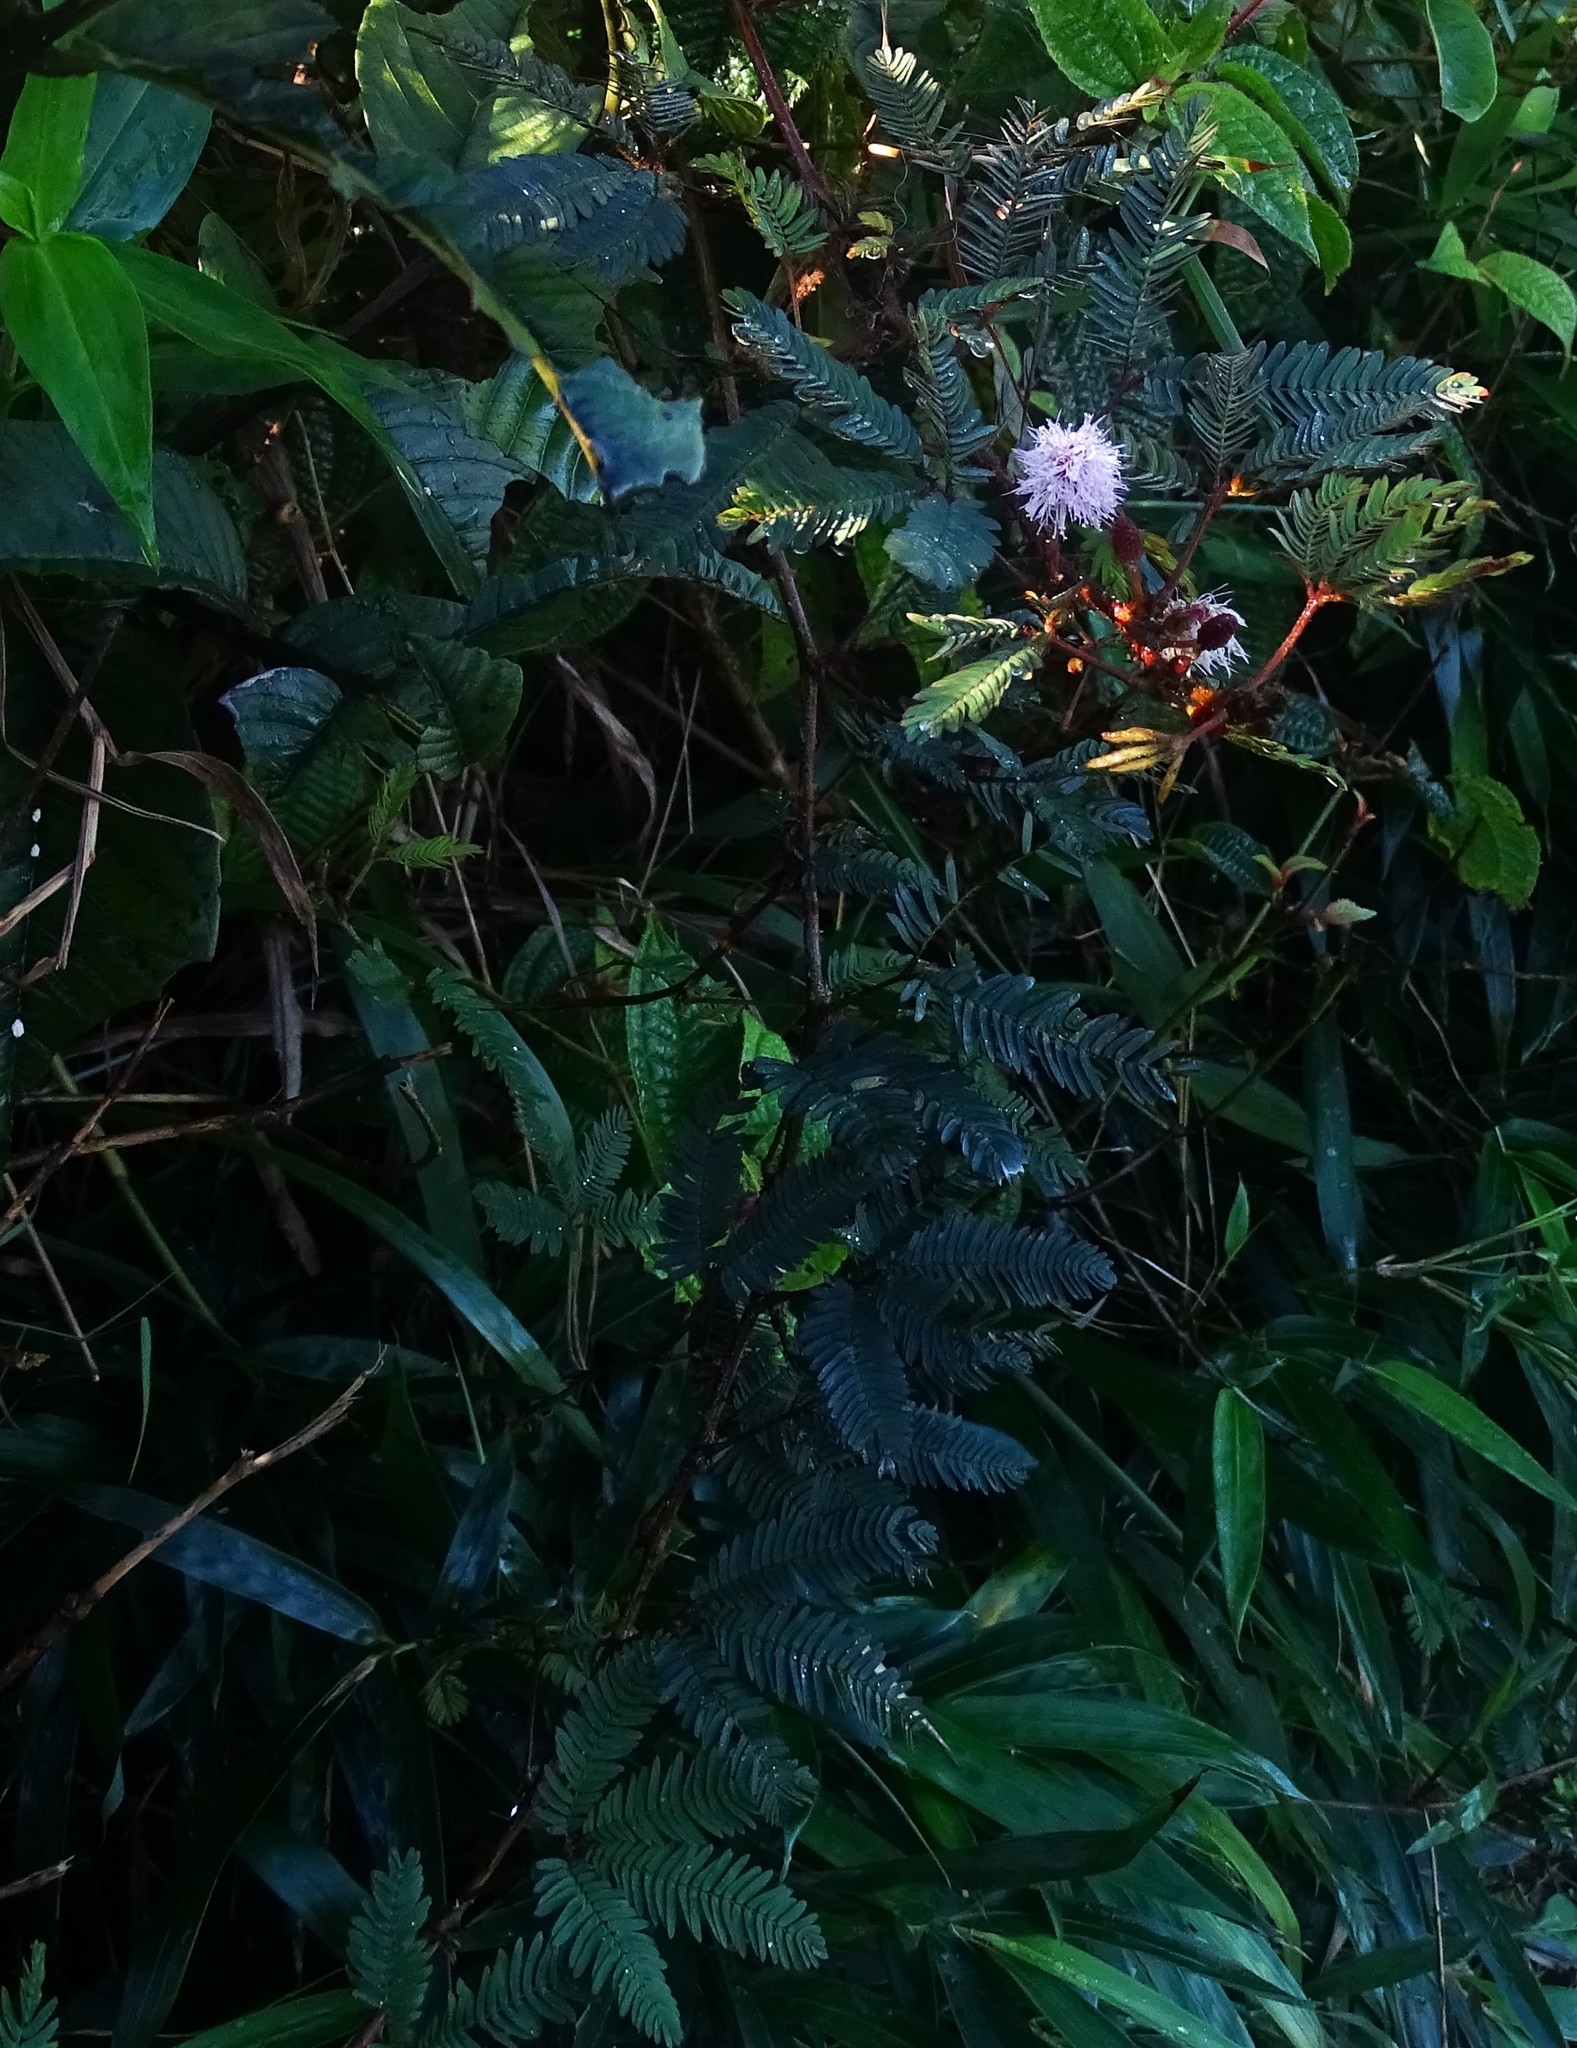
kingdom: Plantae
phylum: Tracheophyta
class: Magnoliopsida
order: Fabales
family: Fabaceae
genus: Mimosa
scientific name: Mimosa pudica
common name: Sensitive plant
